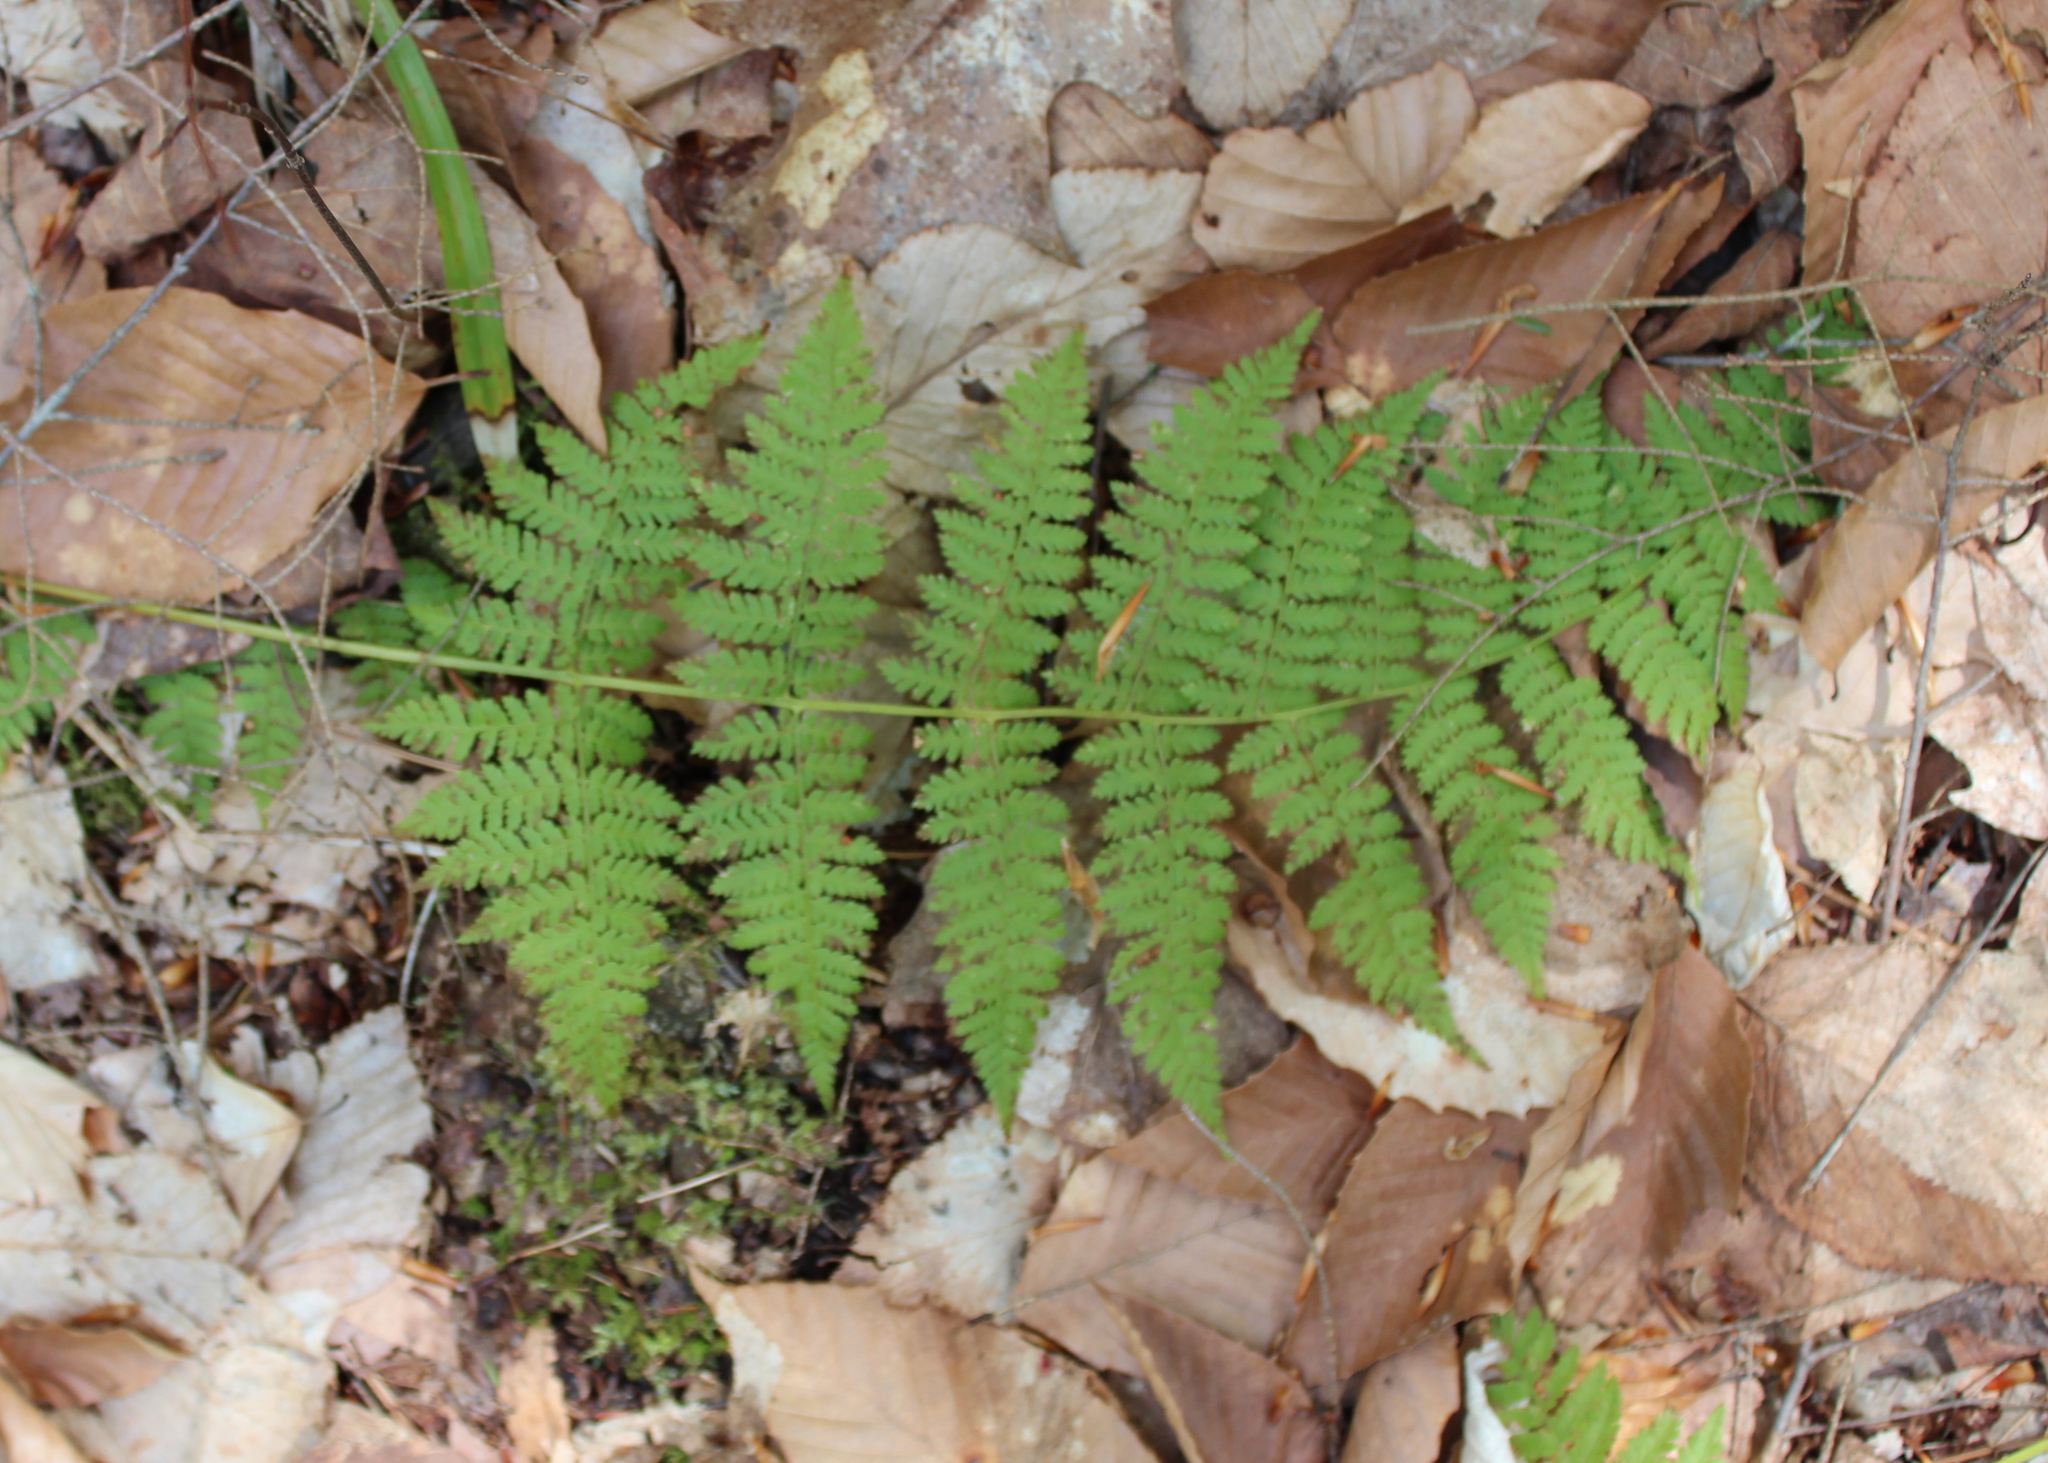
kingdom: Plantae
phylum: Tracheophyta
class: Polypodiopsida
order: Polypodiales
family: Dryopteridaceae
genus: Dryopteris
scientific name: Dryopteris intermedia
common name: Evergreen wood fern
